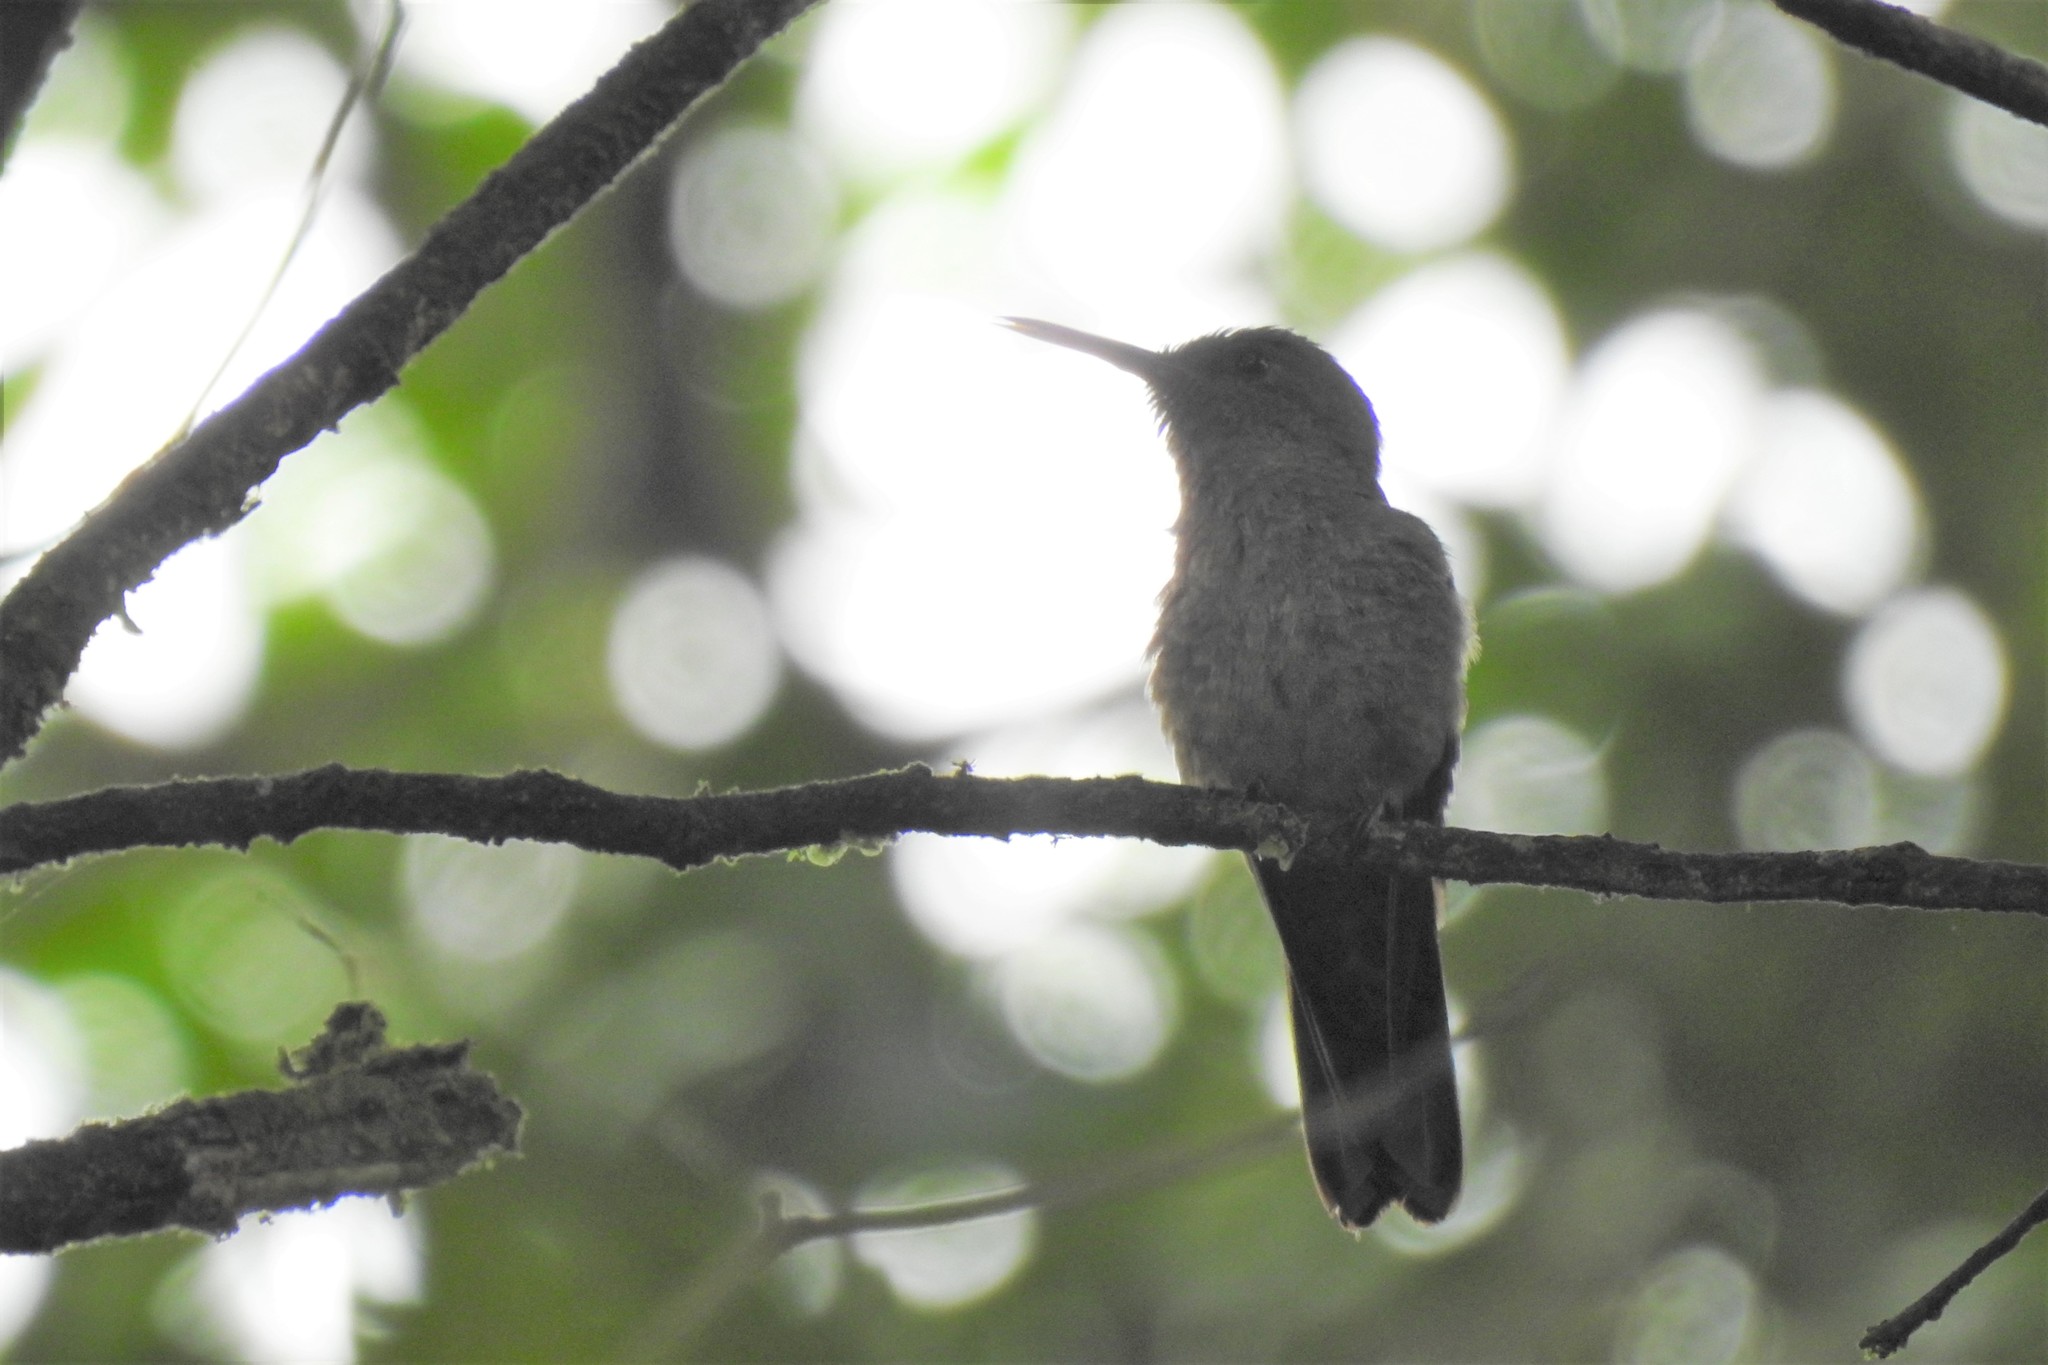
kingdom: Animalia
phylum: Chordata
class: Aves
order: Apodiformes
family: Trochilidae
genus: Phaeochroa
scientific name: Phaeochroa cuvierii
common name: Scaly-breasted hummingbird
